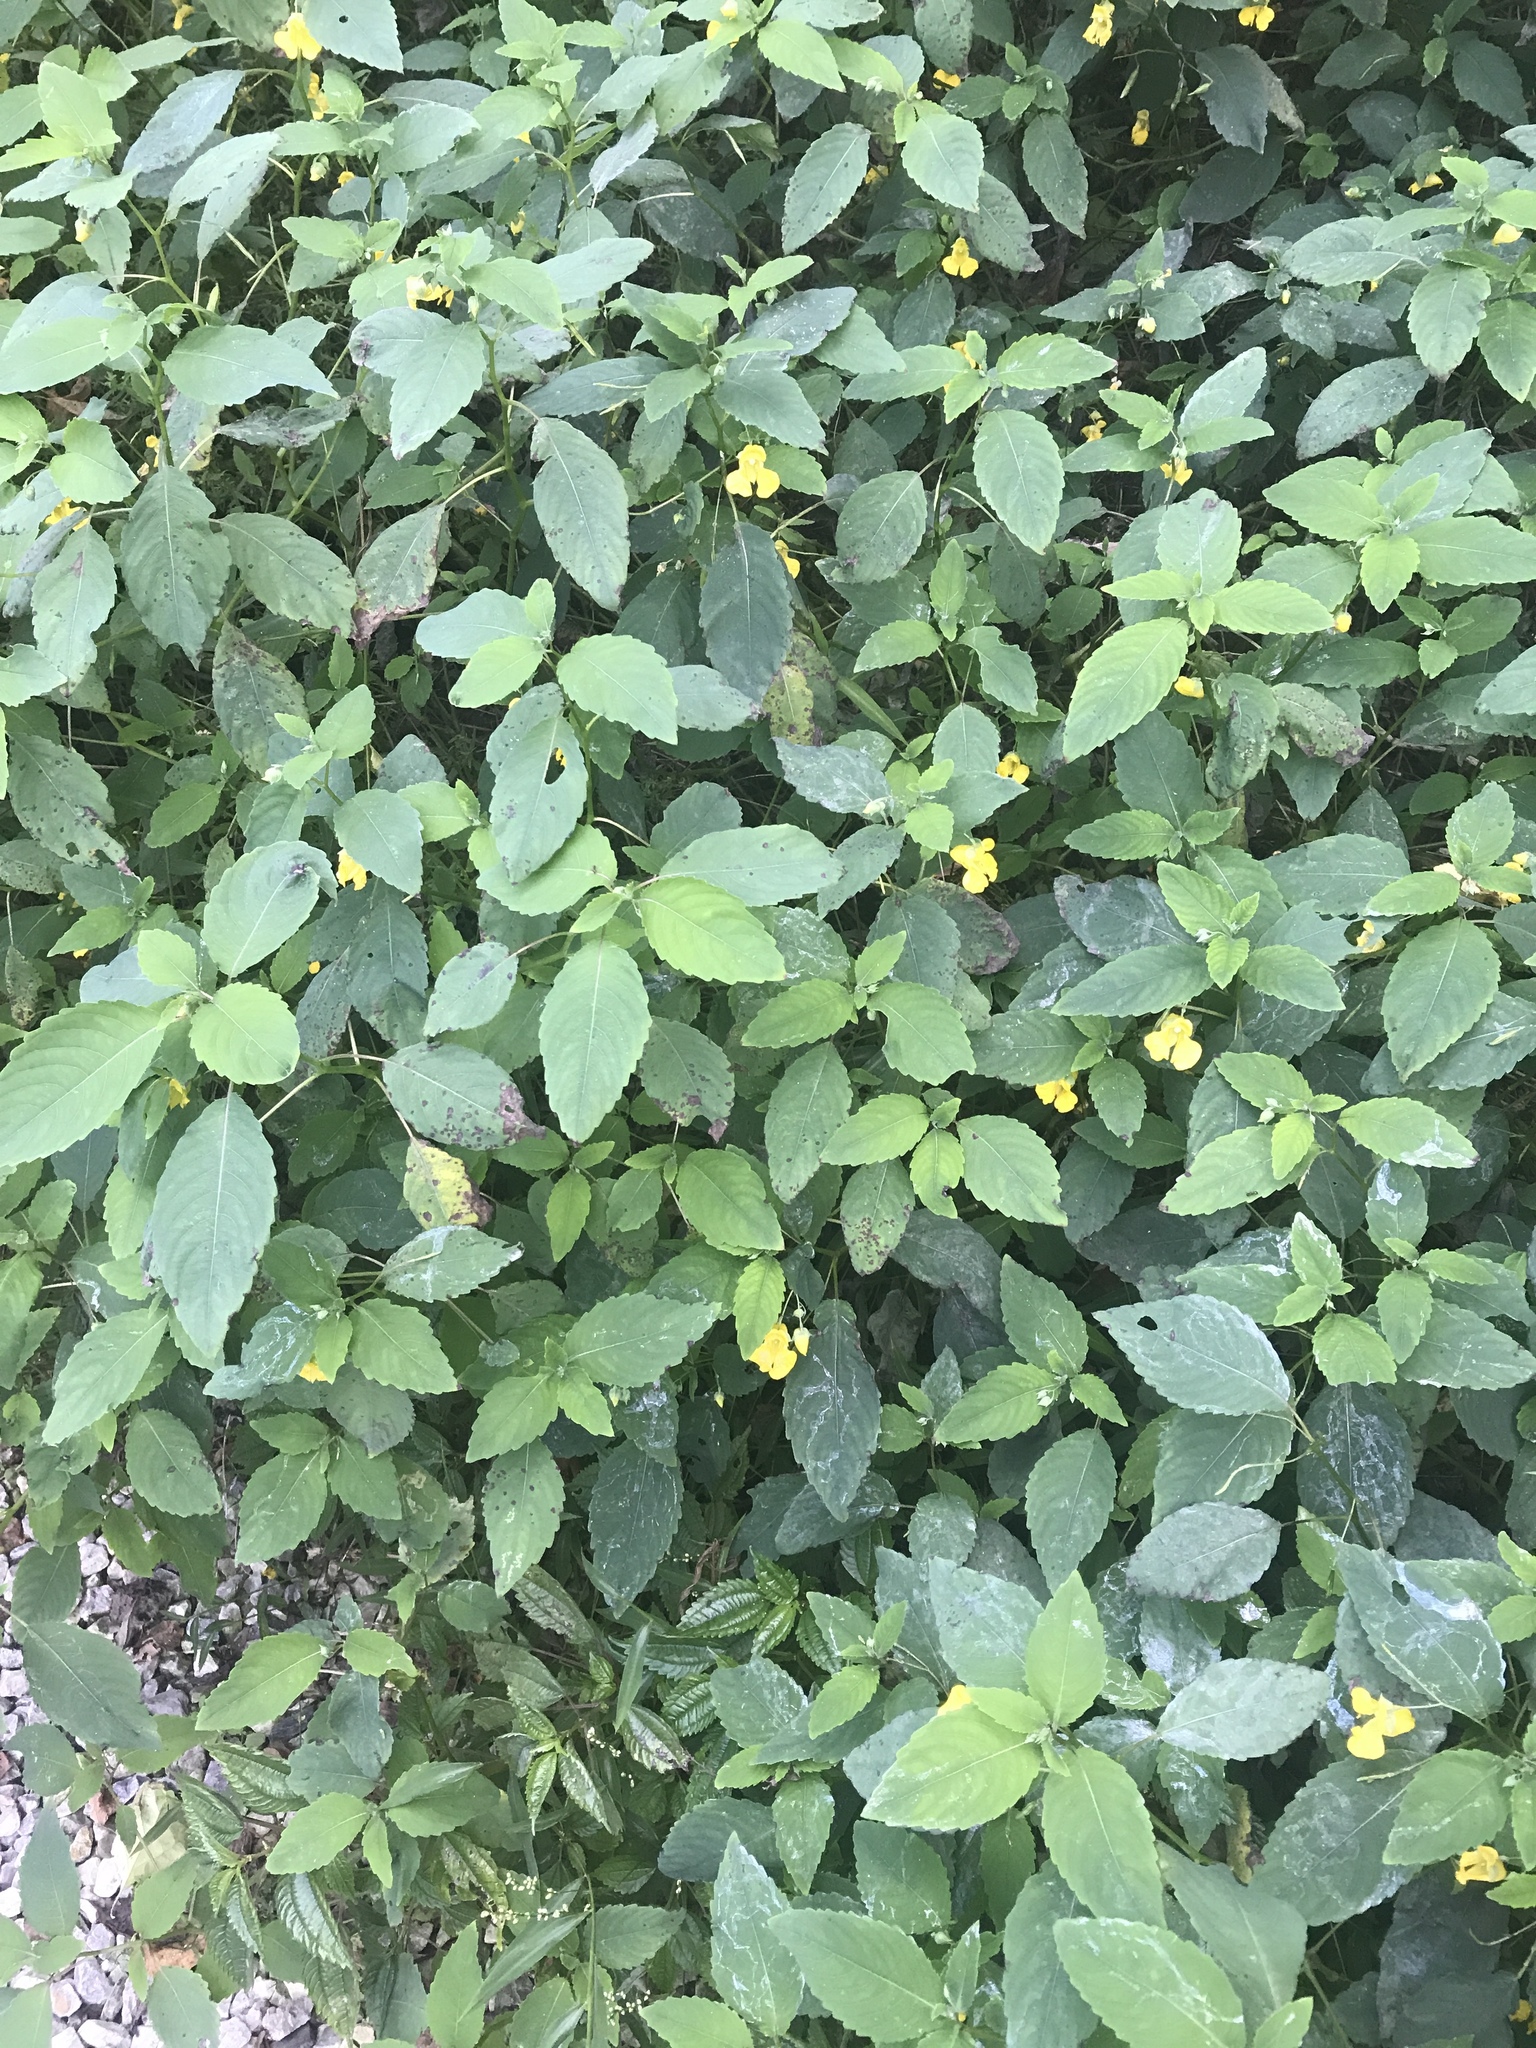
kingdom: Plantae
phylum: Tracheophyta
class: Magnoliopsida
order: Ericales
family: Balsaminaceae
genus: Impatiens
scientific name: Impatiens pallida
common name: Pale snapweed
